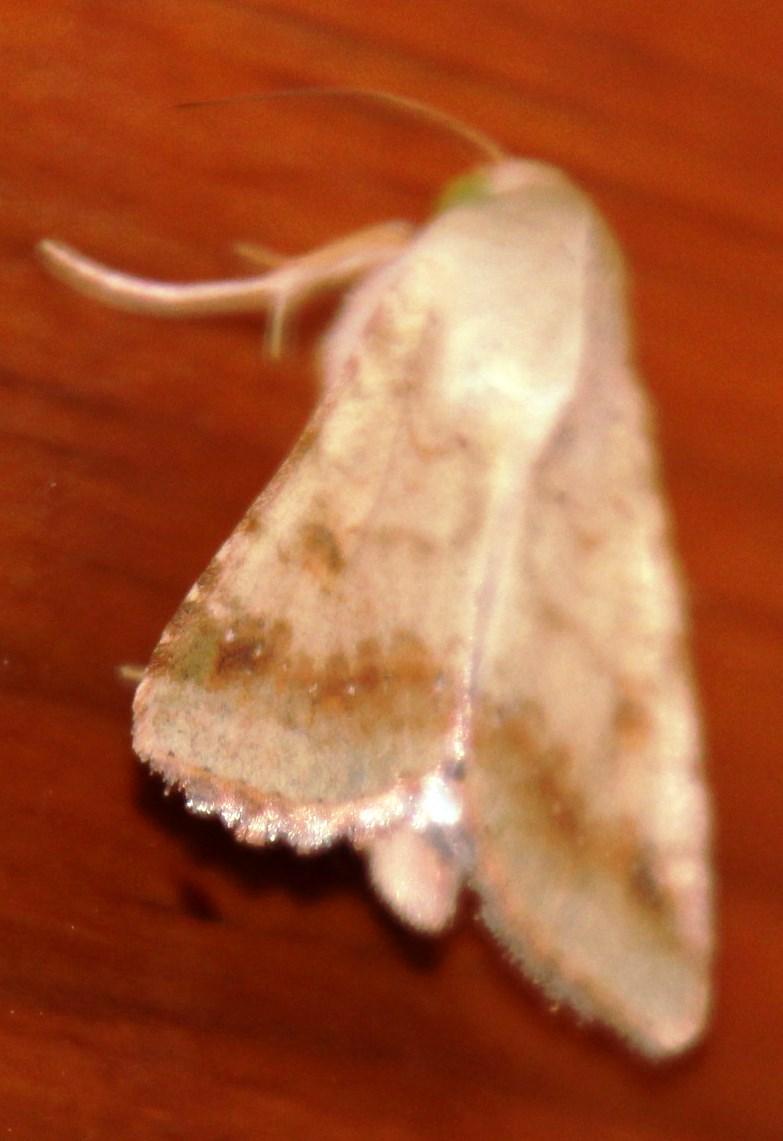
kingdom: Animalia
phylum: Arthropoda
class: Insecta
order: Lepidoptera
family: Noctuidae
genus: Helicoverpa
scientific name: Helicoverpa armigera
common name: Cotton bollworm
